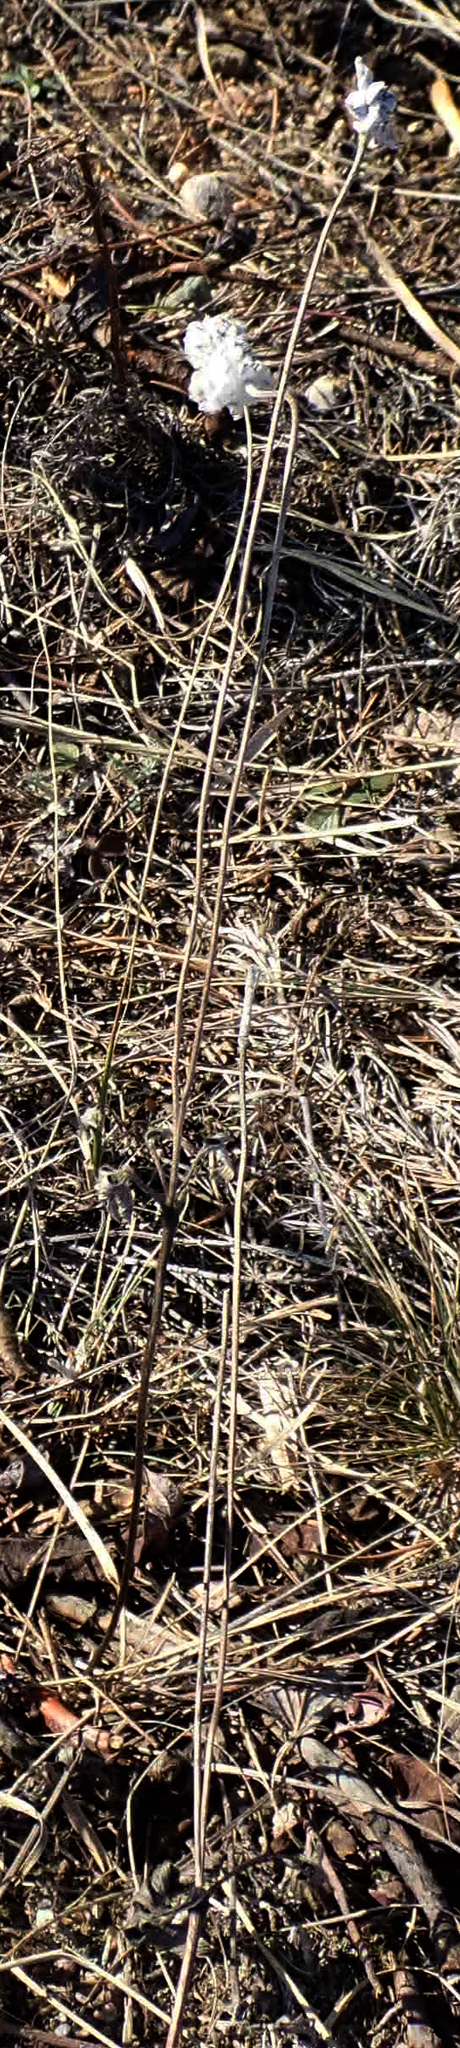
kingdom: Plantae
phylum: Tracheophyta
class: Magnoliopsida
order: Ranunculales
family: Ranunculaceae
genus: Anemone
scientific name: Anemone cylindrica
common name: Candle anemone
